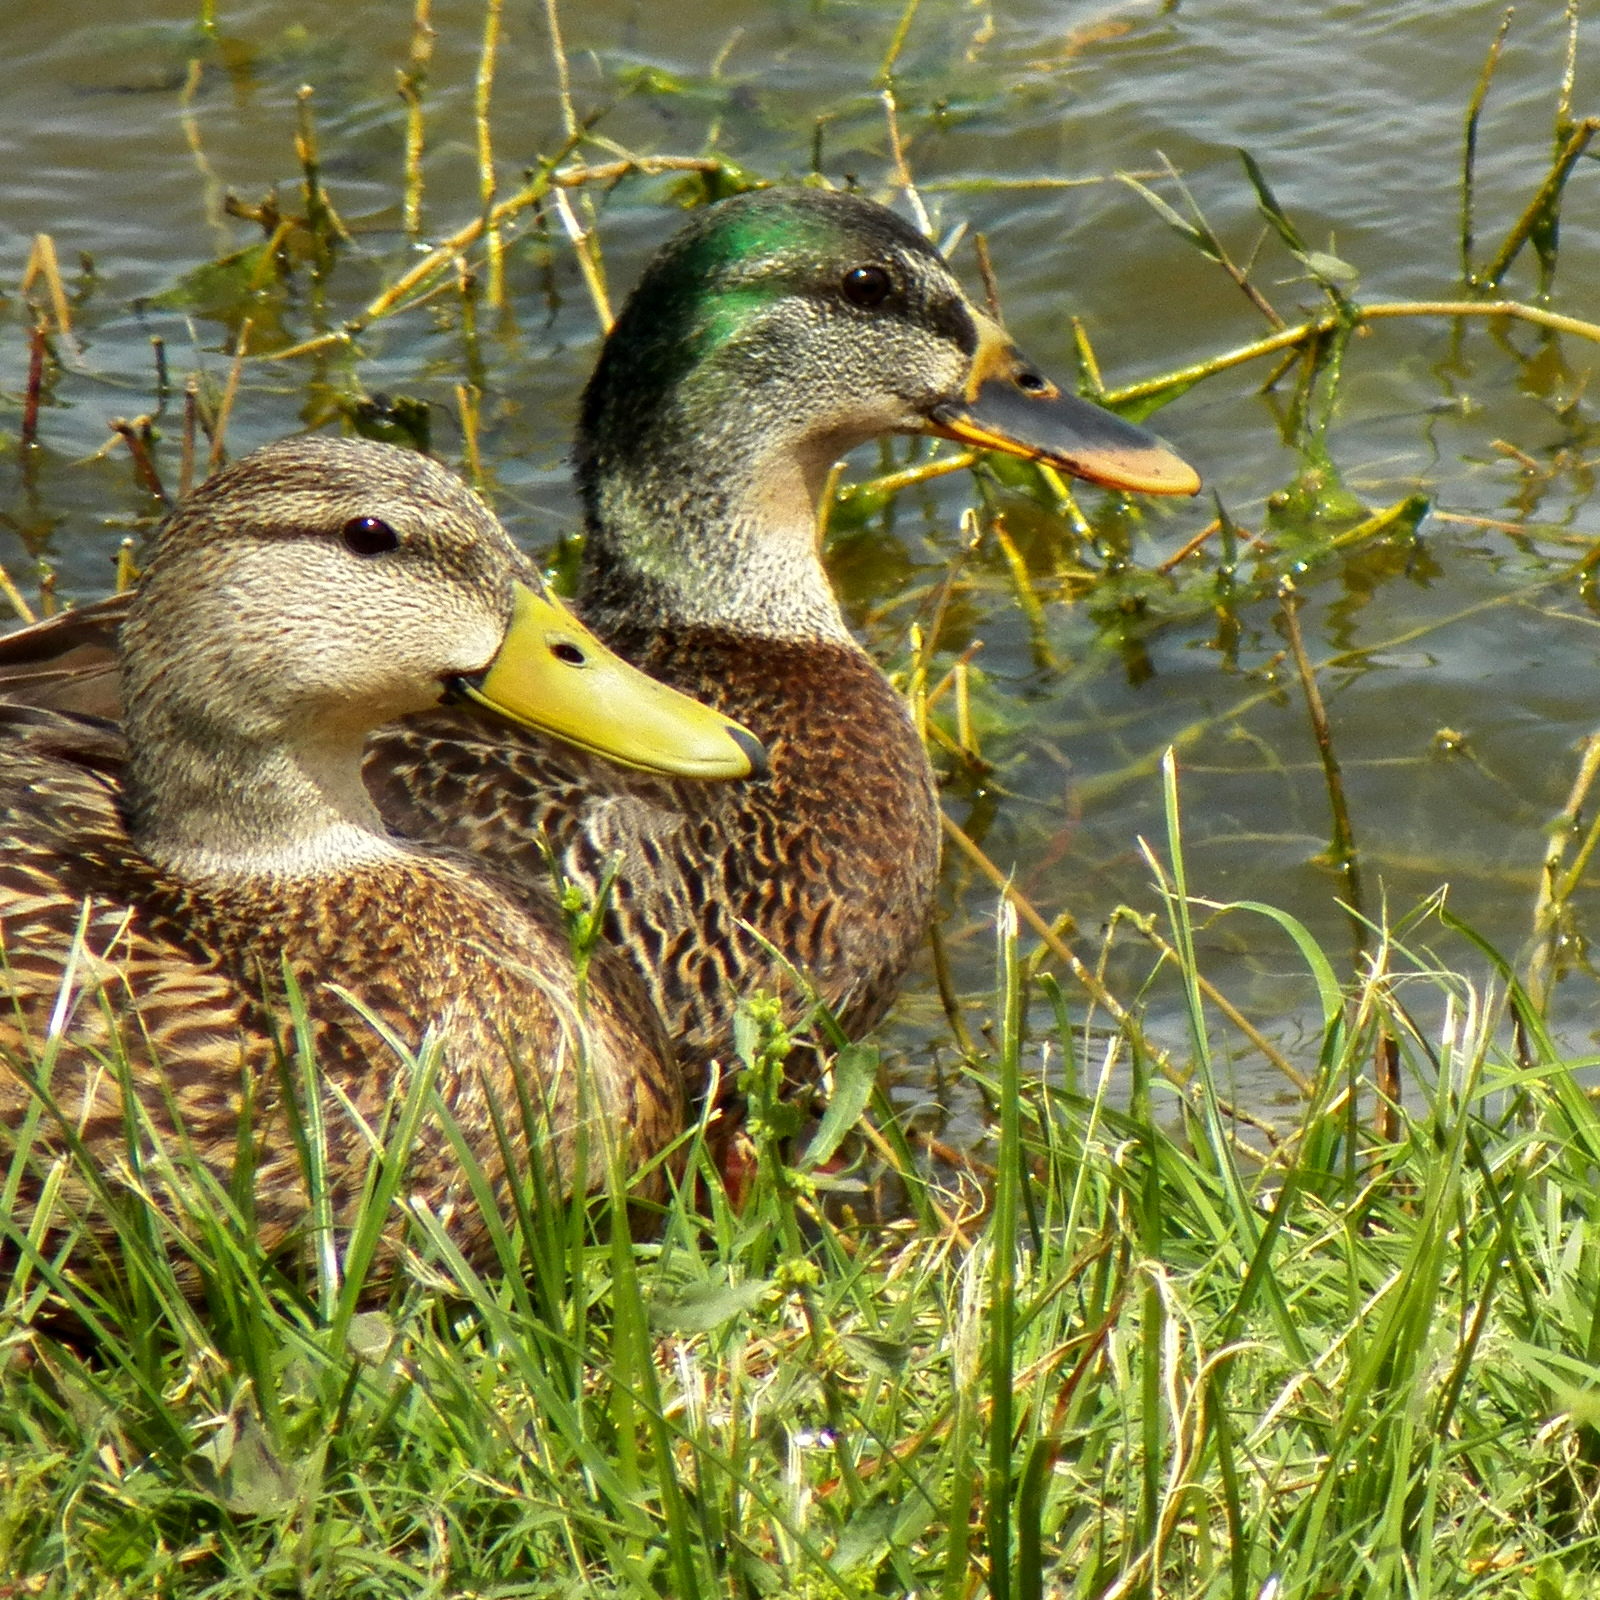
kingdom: Animalia
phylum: Chordata
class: Aves
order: Anseriformes
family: Anatidae
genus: Anas
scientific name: Anas
